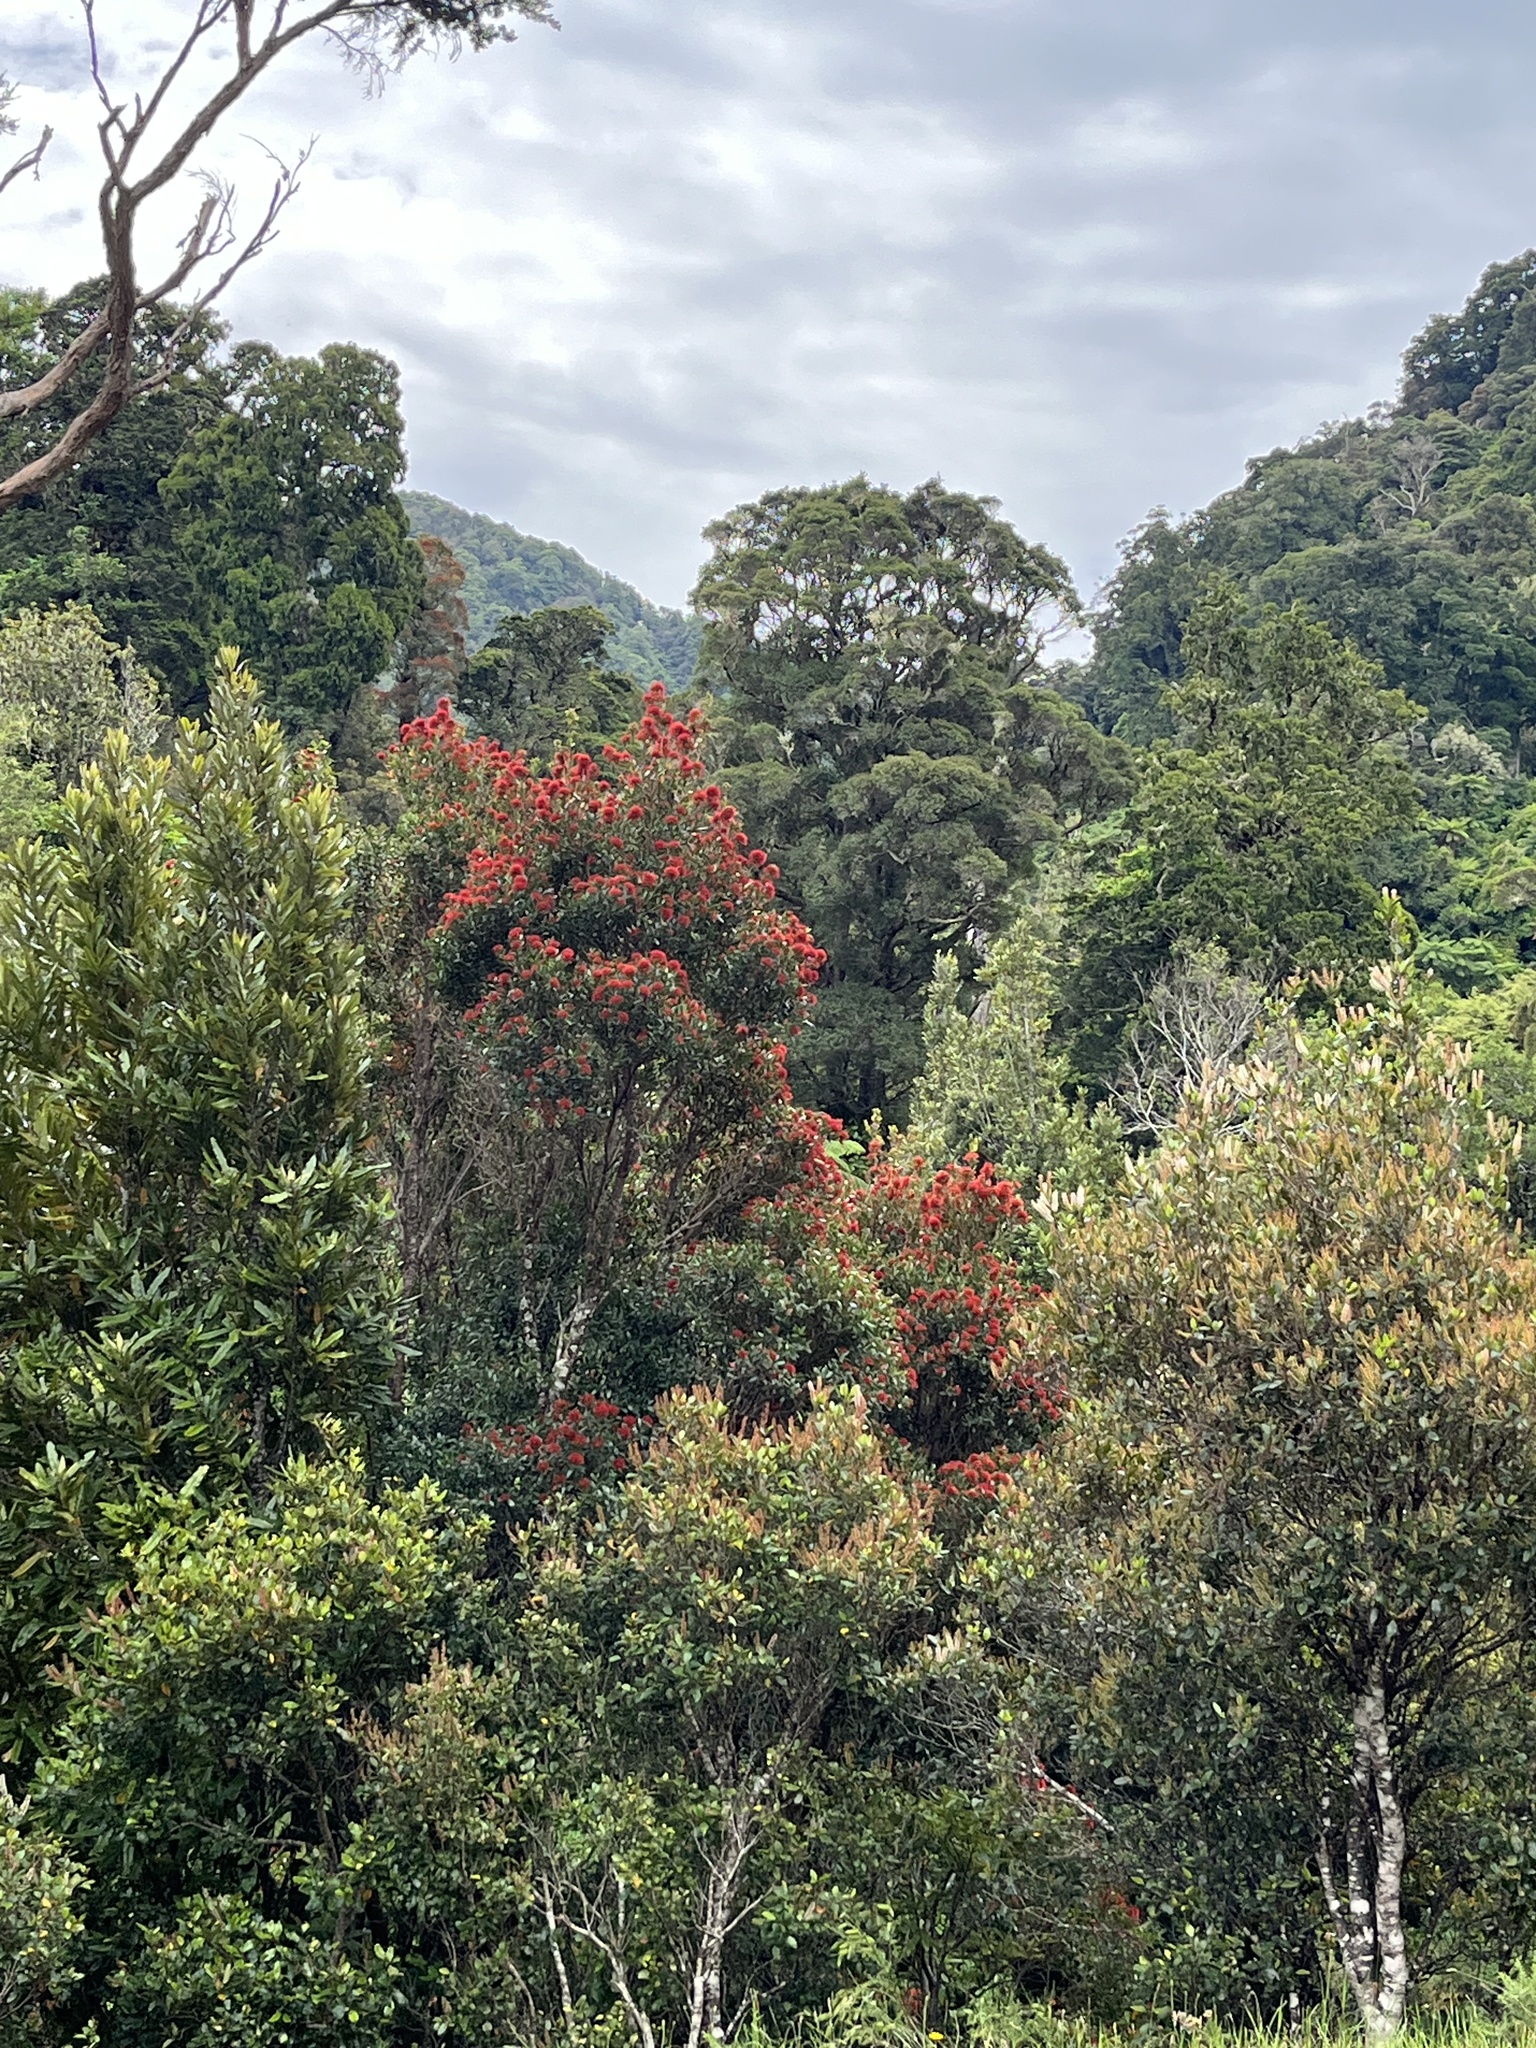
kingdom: Plantae
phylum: Tracheophyta
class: Magnoliopsida
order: Myrtales
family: Myrtaceae
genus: Metrosideros
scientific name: Metrosideros robusta
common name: Northern rata
